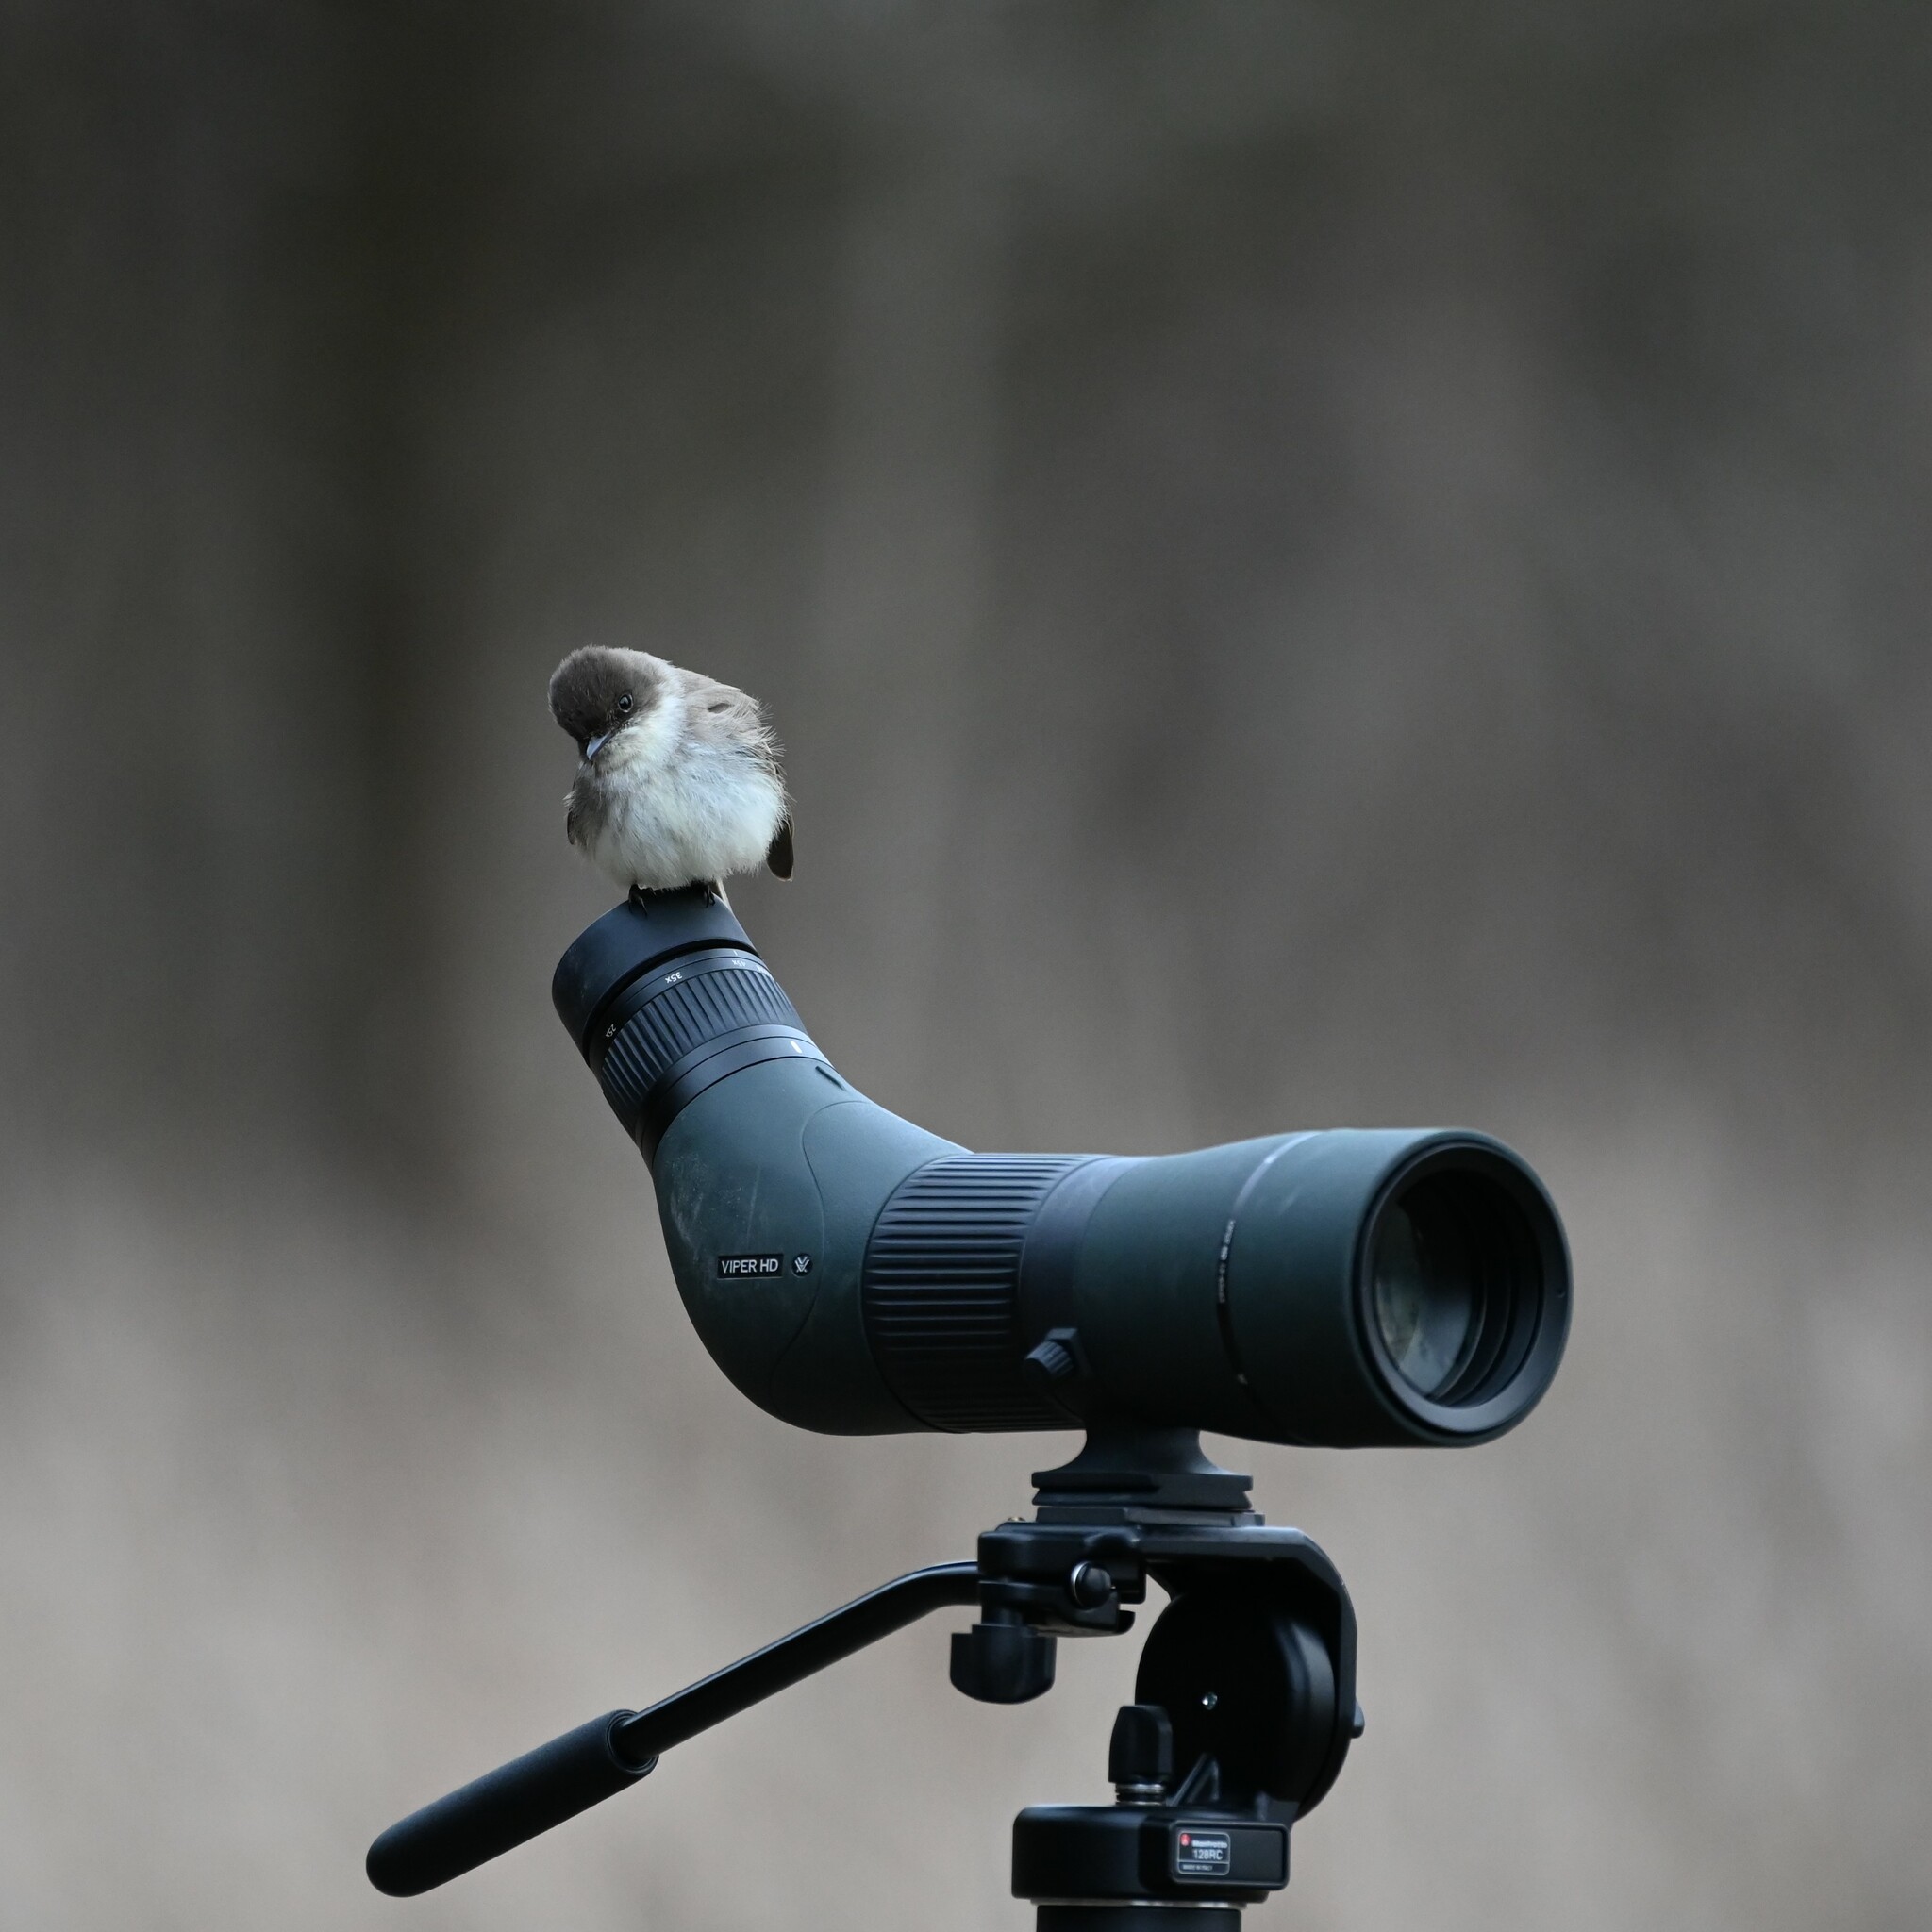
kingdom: Animalia
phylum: Chordata
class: Aves
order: Passeriformes
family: Tyrannidae
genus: Sayornis
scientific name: Sayornis phoebe
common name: Eastern phoebe
